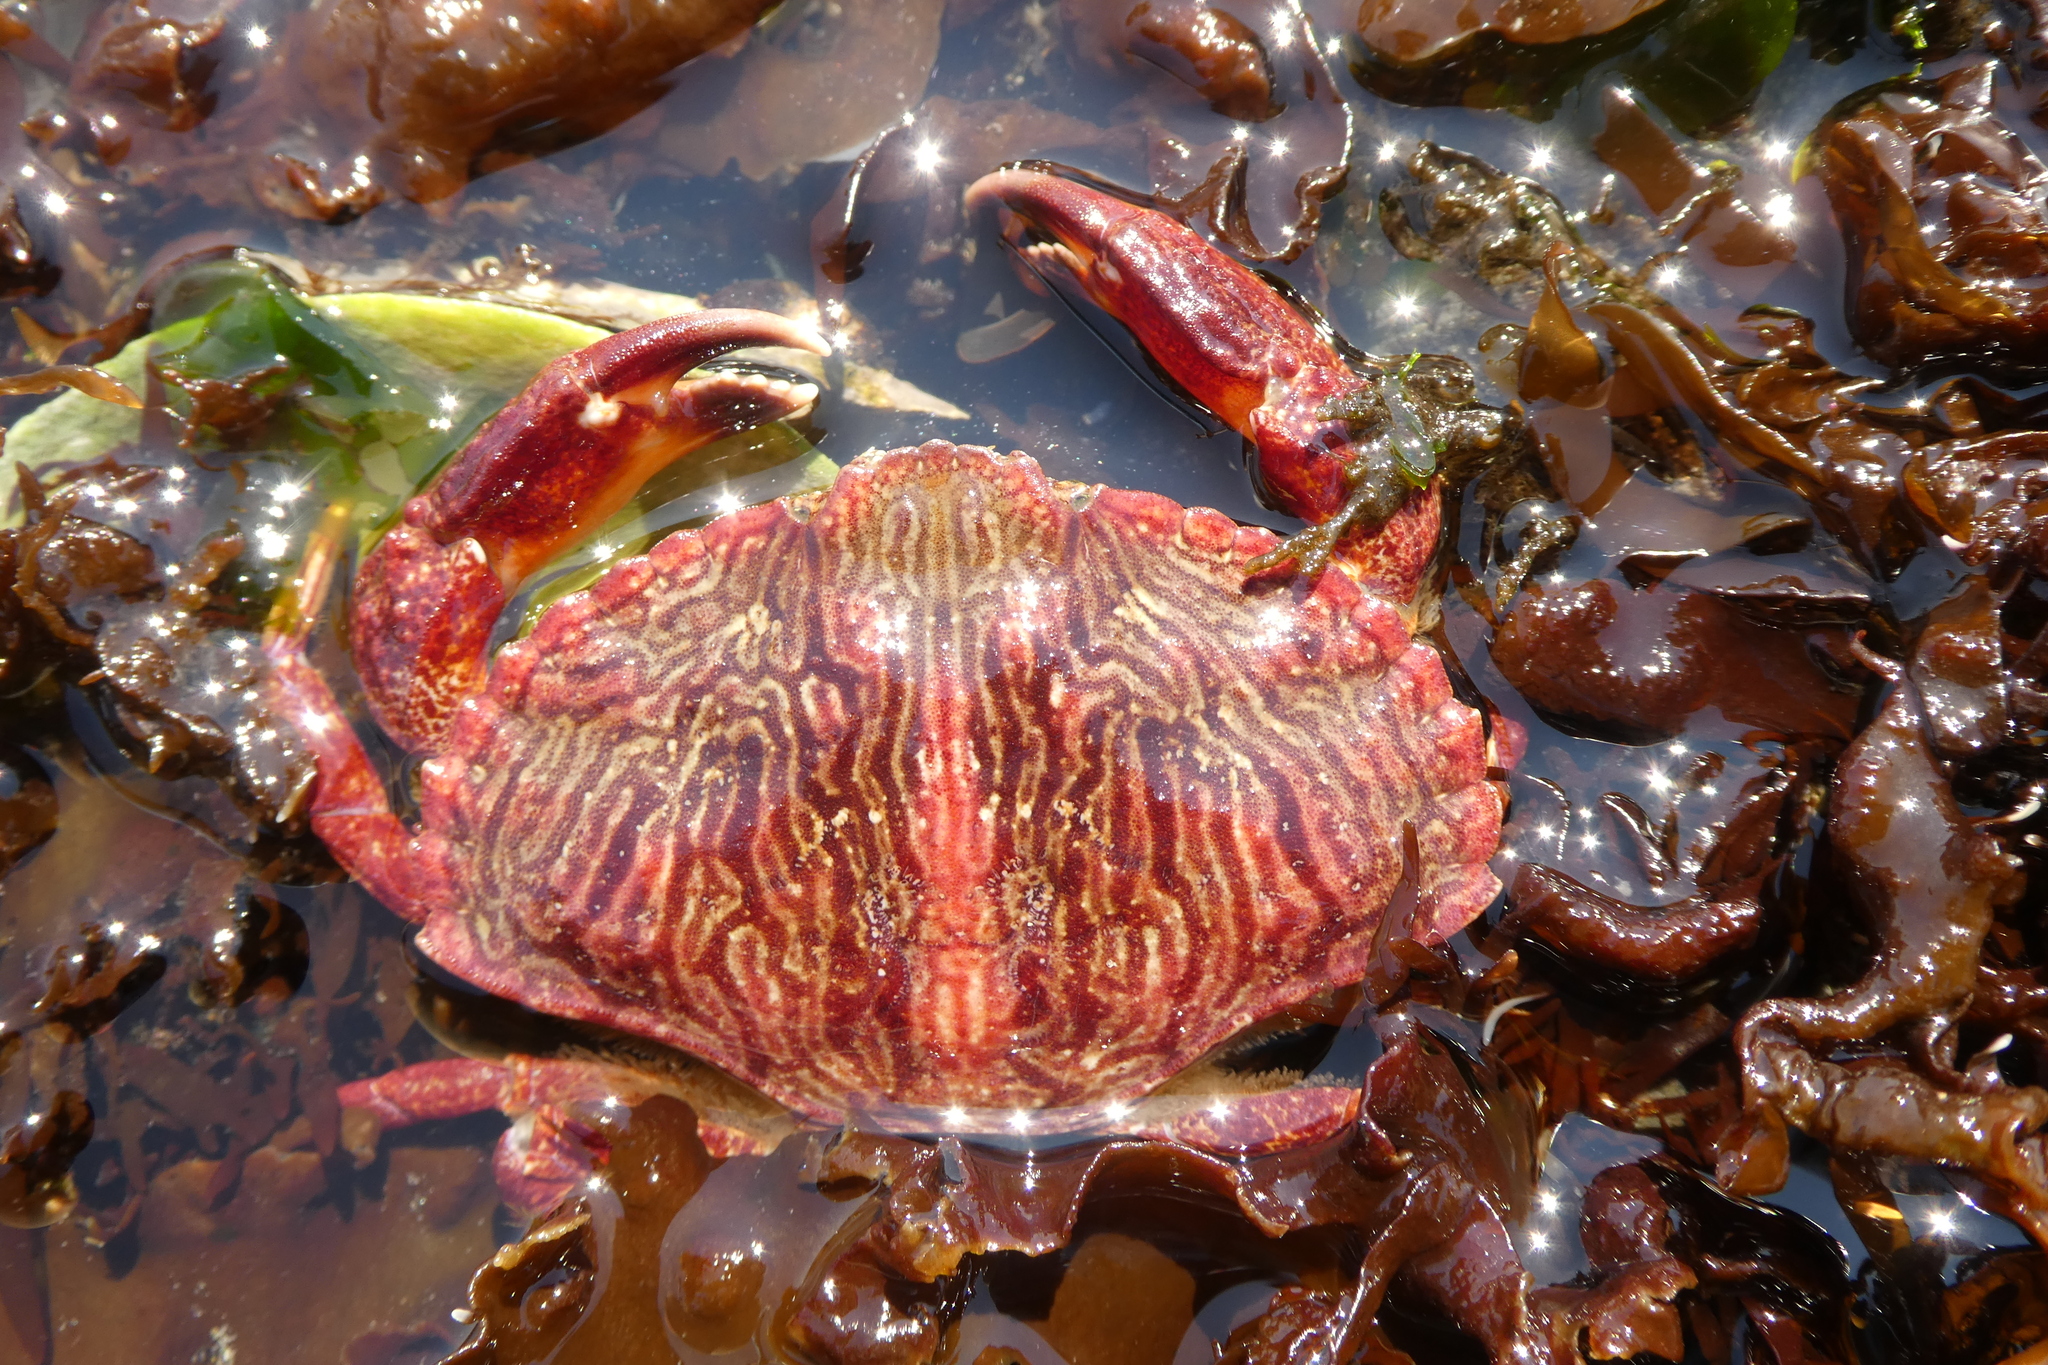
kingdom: Animalia
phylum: Arthropoda
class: Malacostraca
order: Decapoda
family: Cancridae
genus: Cancer
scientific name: Cancer productus
